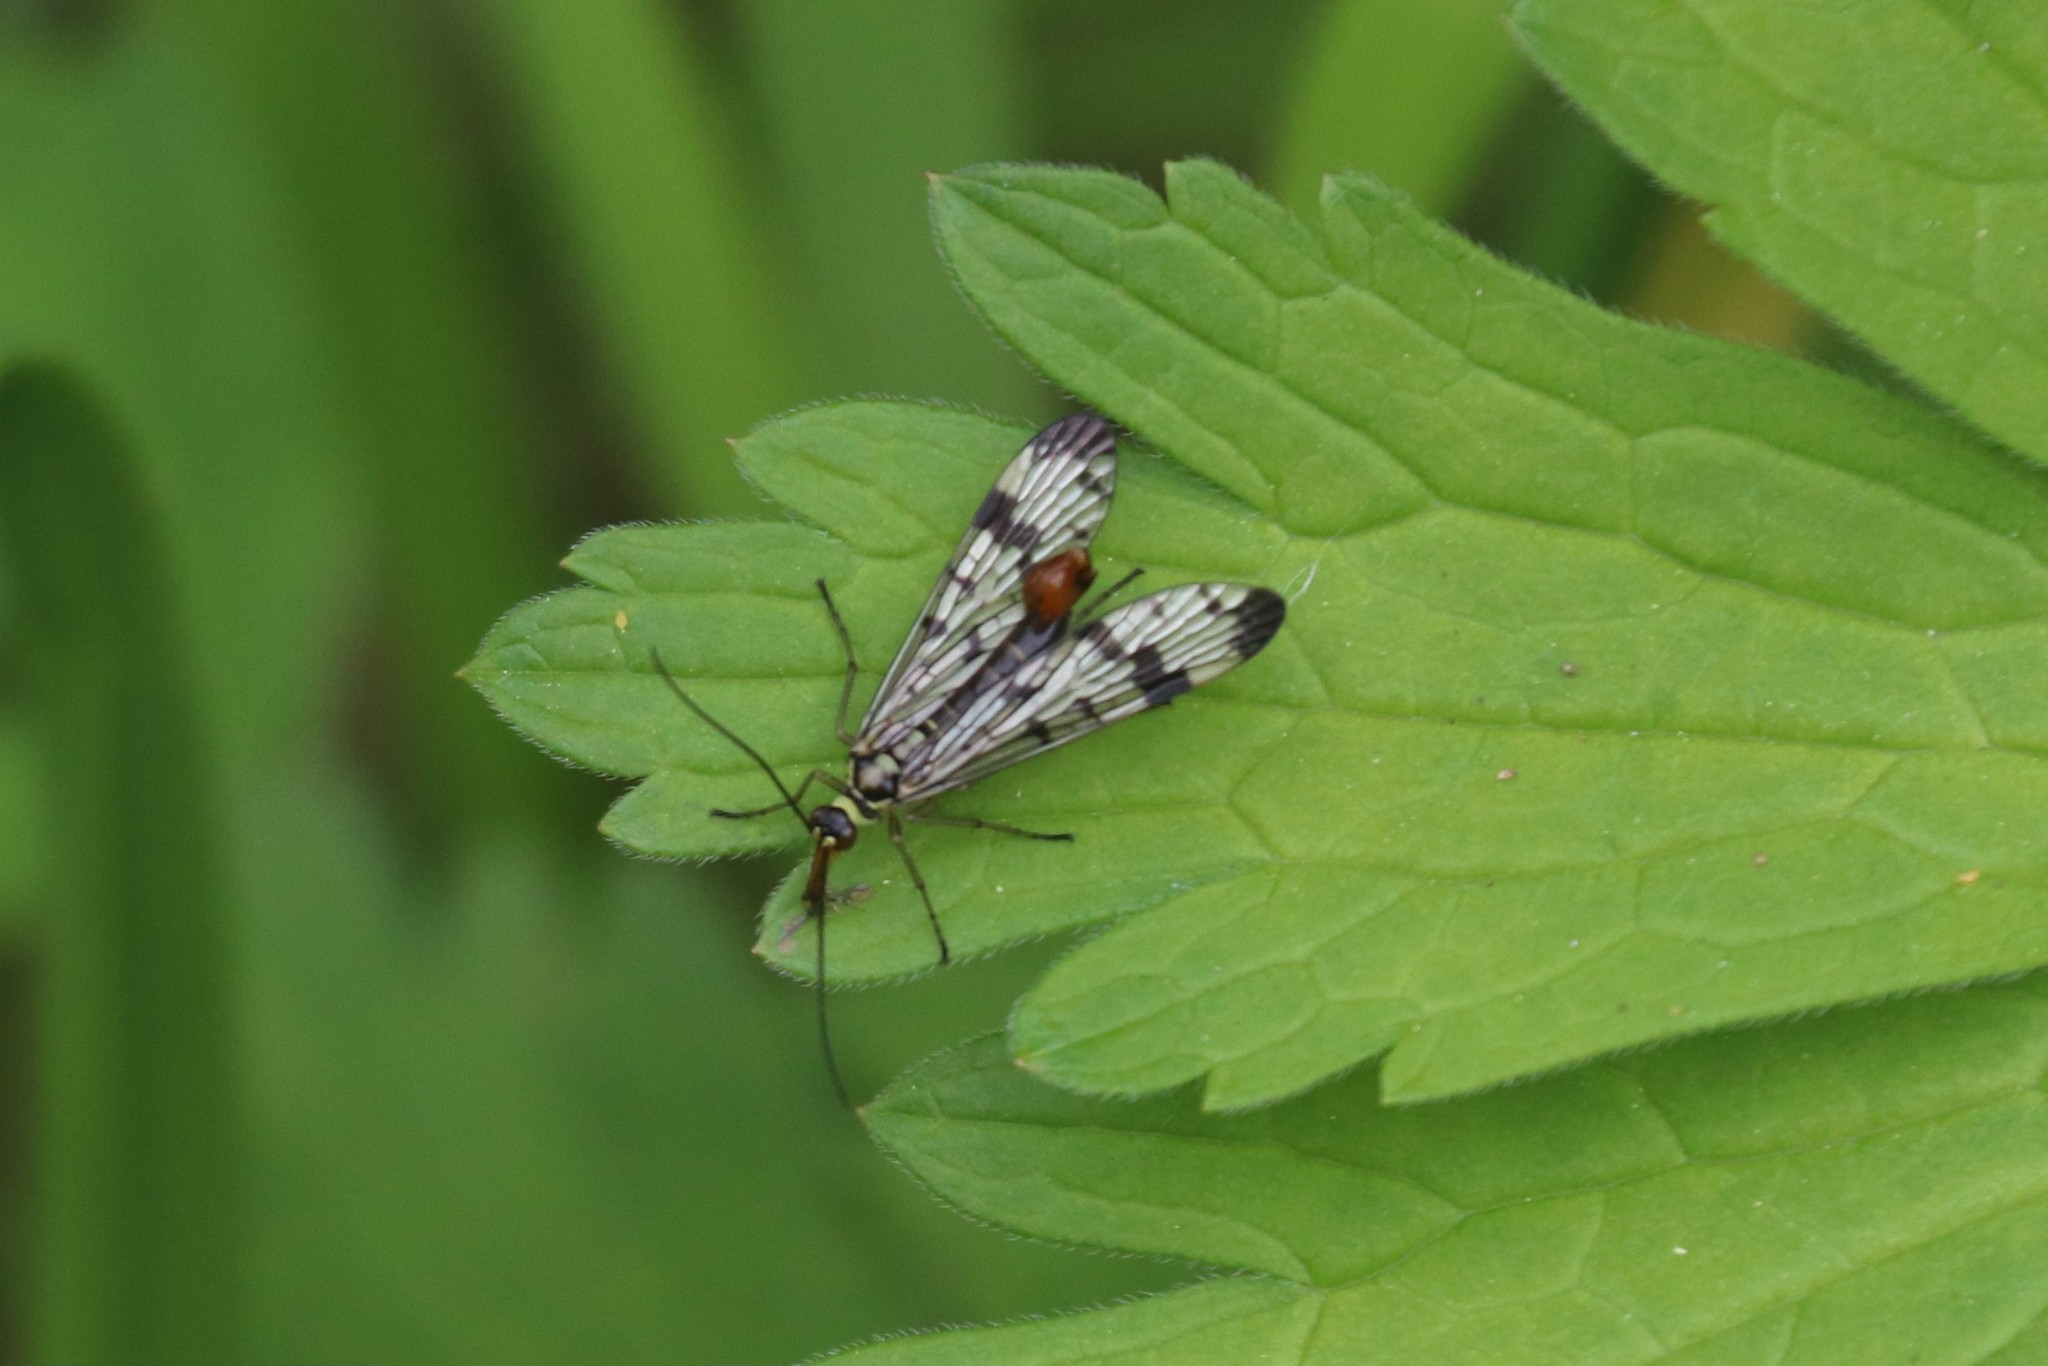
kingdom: Animalia
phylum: Arthropoda
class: Insecta
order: Mecoptera
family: Panorpidae
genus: Panorpa
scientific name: Panorpa communis
